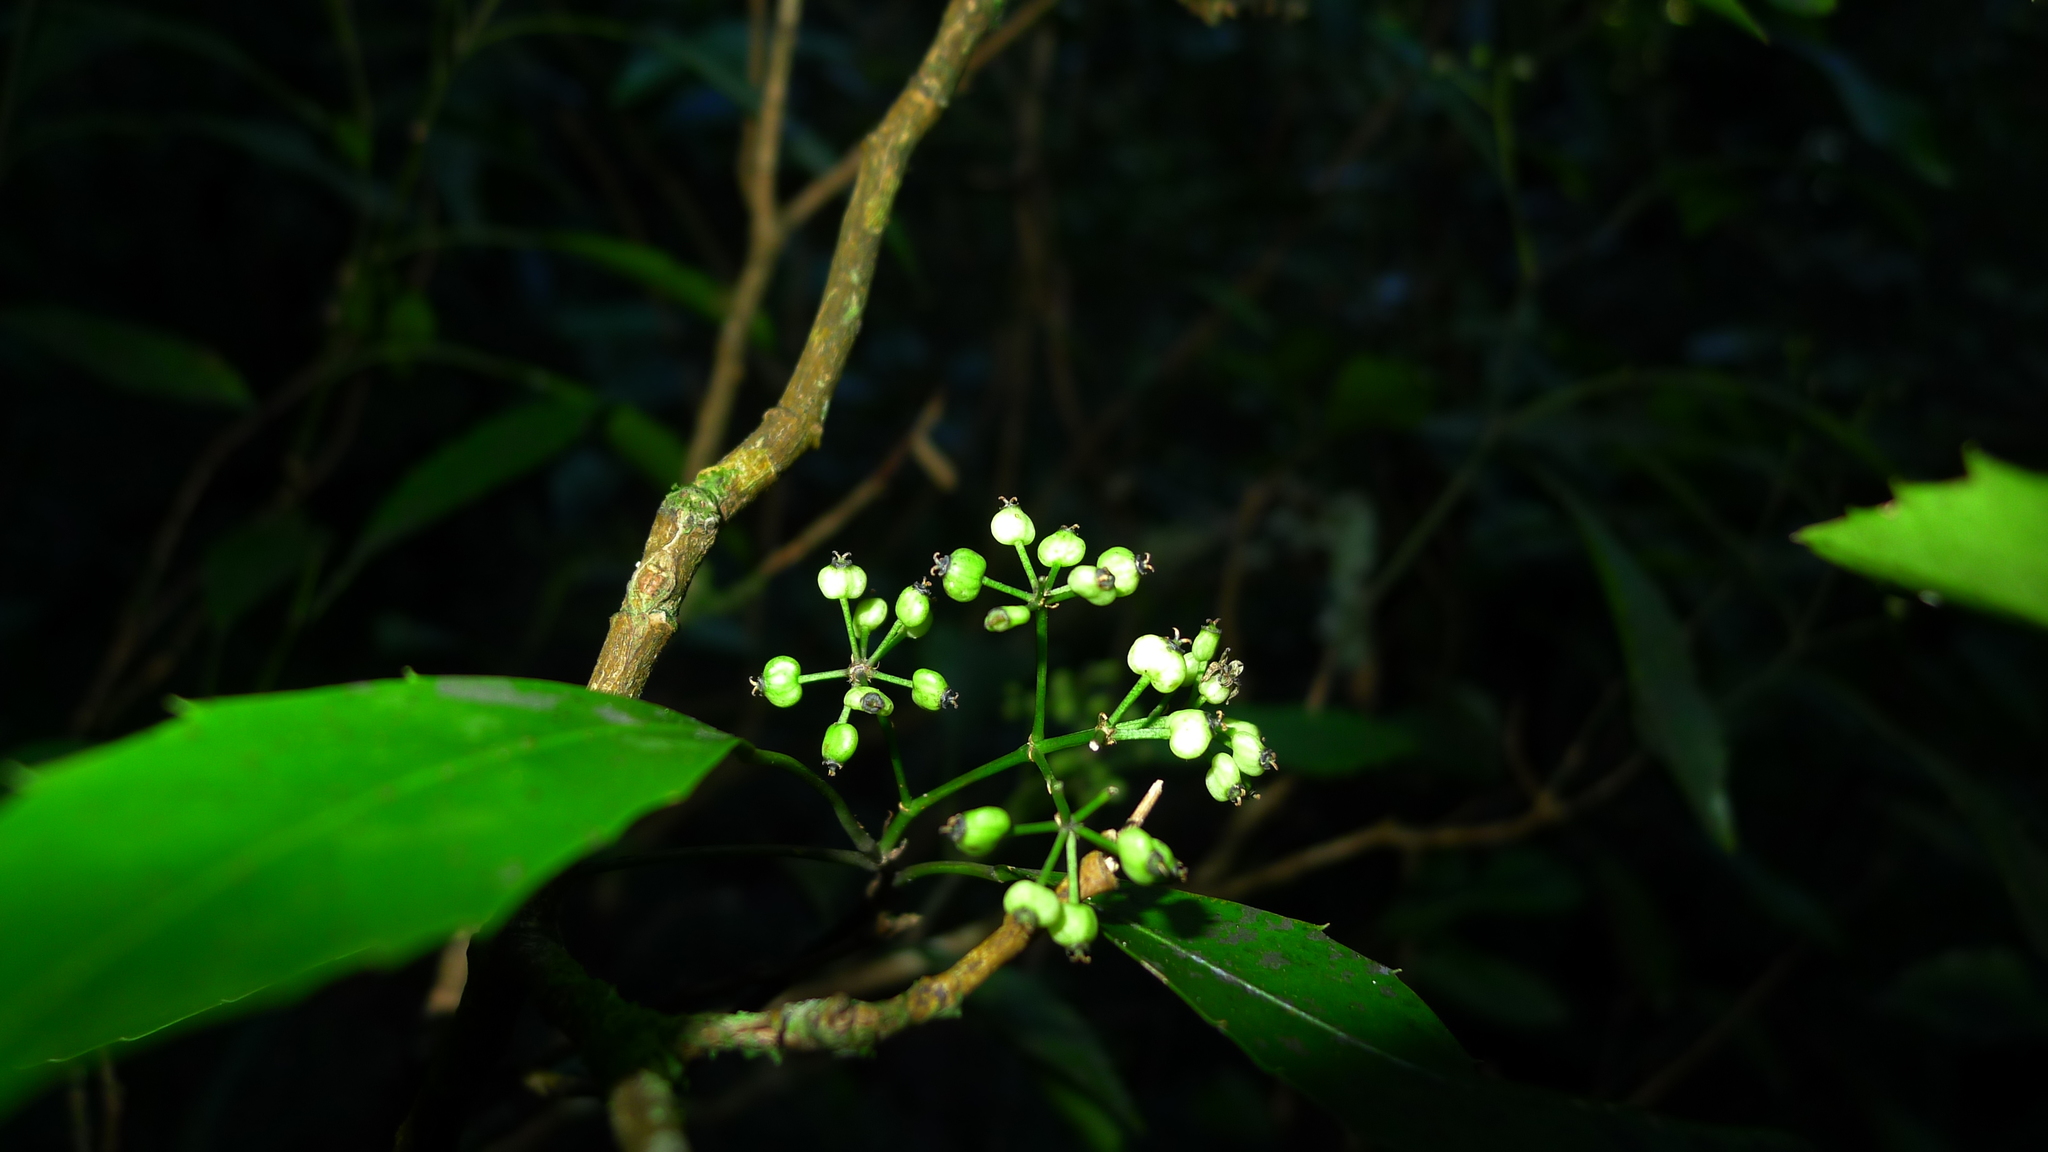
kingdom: Plantae
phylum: Tracheophyta
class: Magnoliopsida
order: Apiales
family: Araliaceae
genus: Raukaua
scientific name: Raukaua simplex
